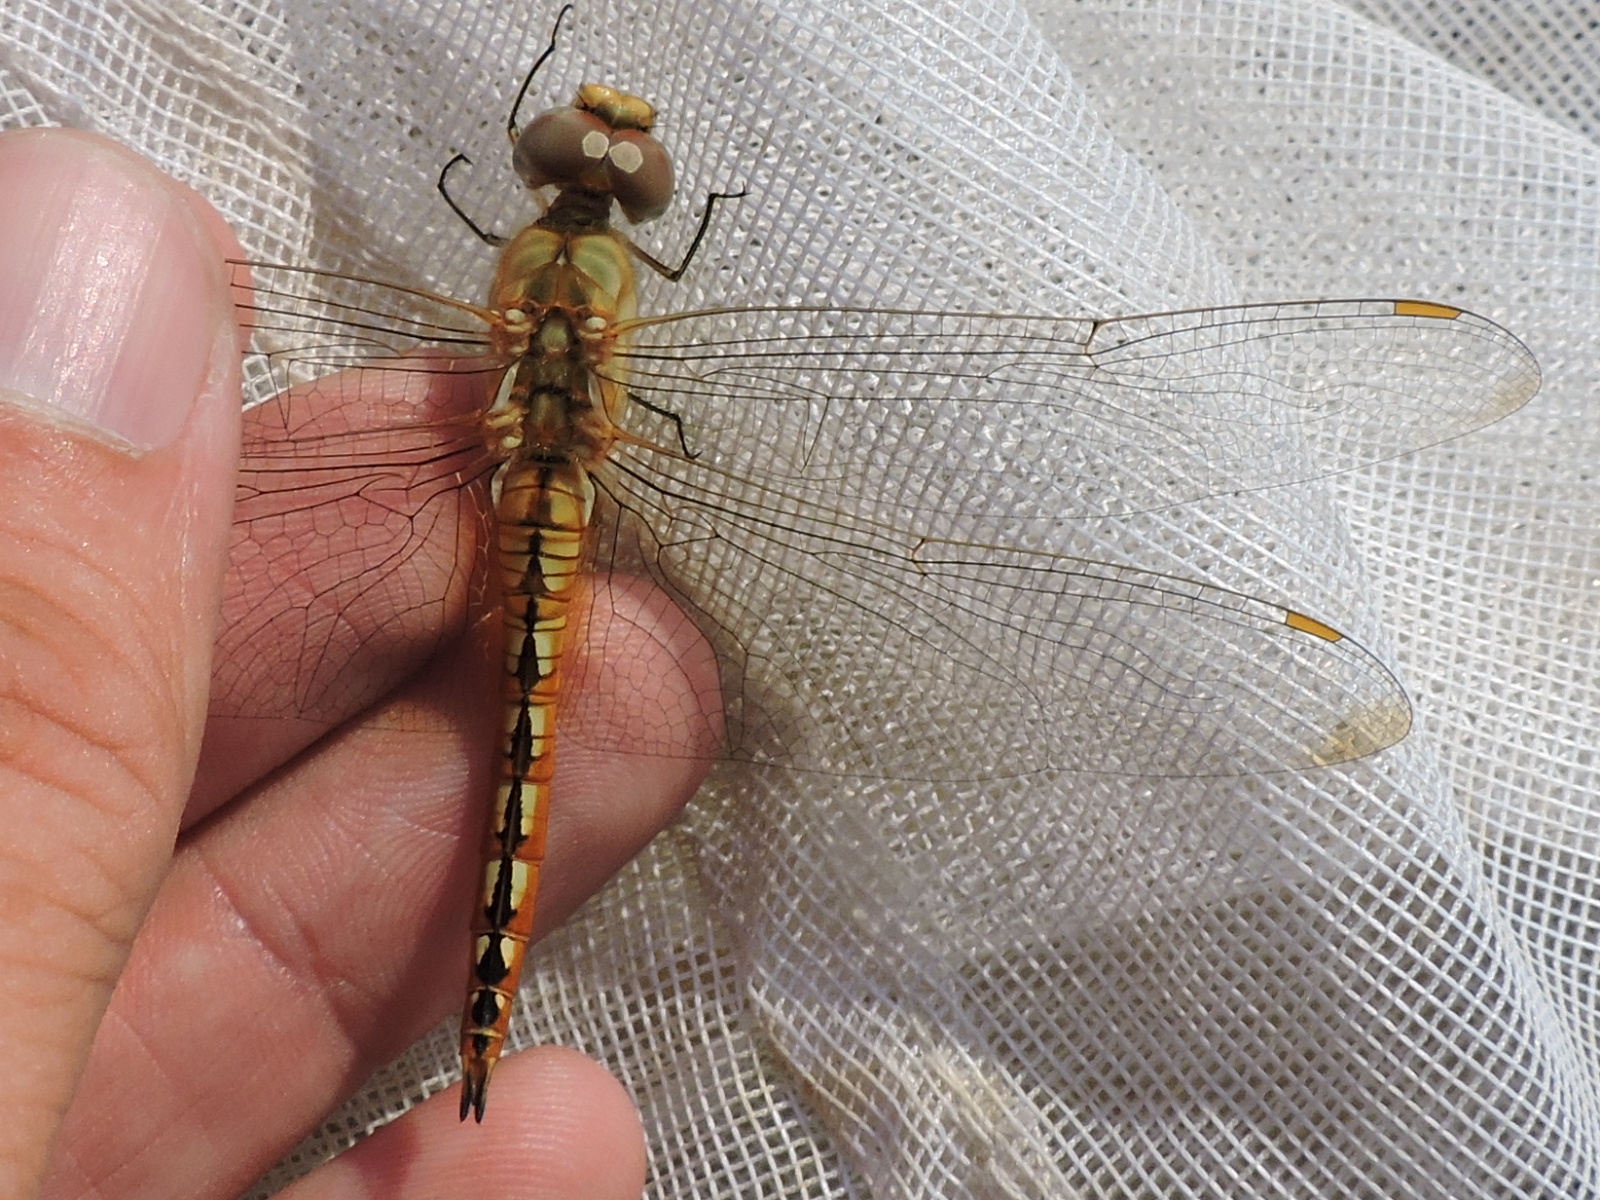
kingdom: Animalia
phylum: Arthropoda
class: Insecta
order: Odonata
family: Libellulidae
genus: Pantala
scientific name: Pantala flavescens
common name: Wandering glider
